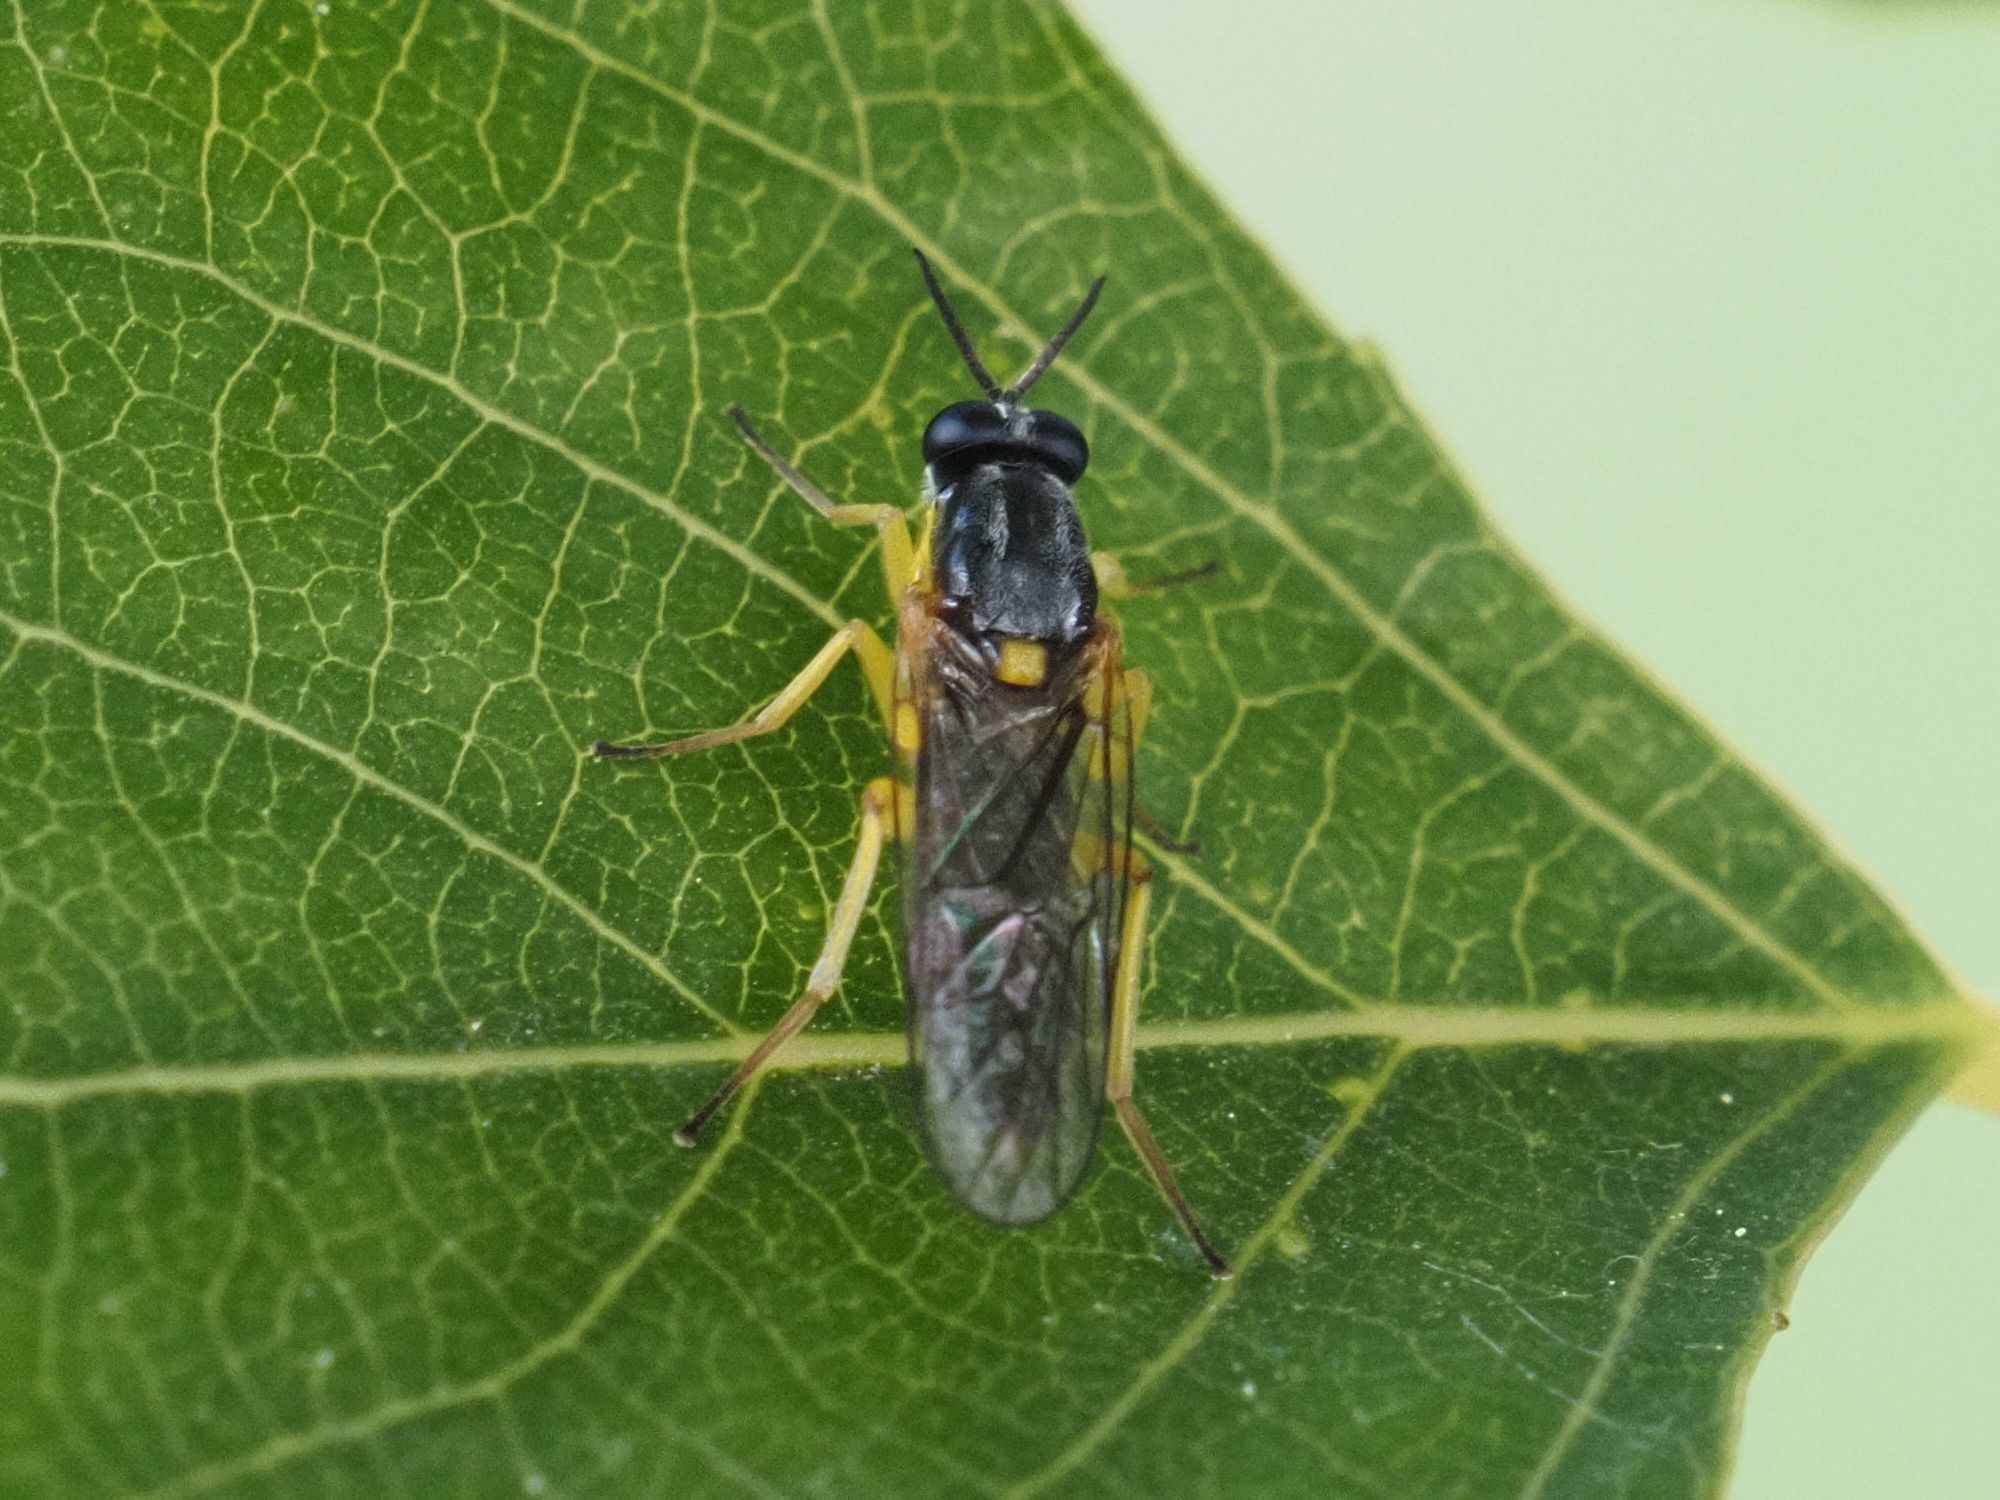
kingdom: Animalia
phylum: Arthropoda
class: Insecta
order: Diptera
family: Xylomyidae
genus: Solva
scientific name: Solva marginata
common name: Drab wood-soldierfly
